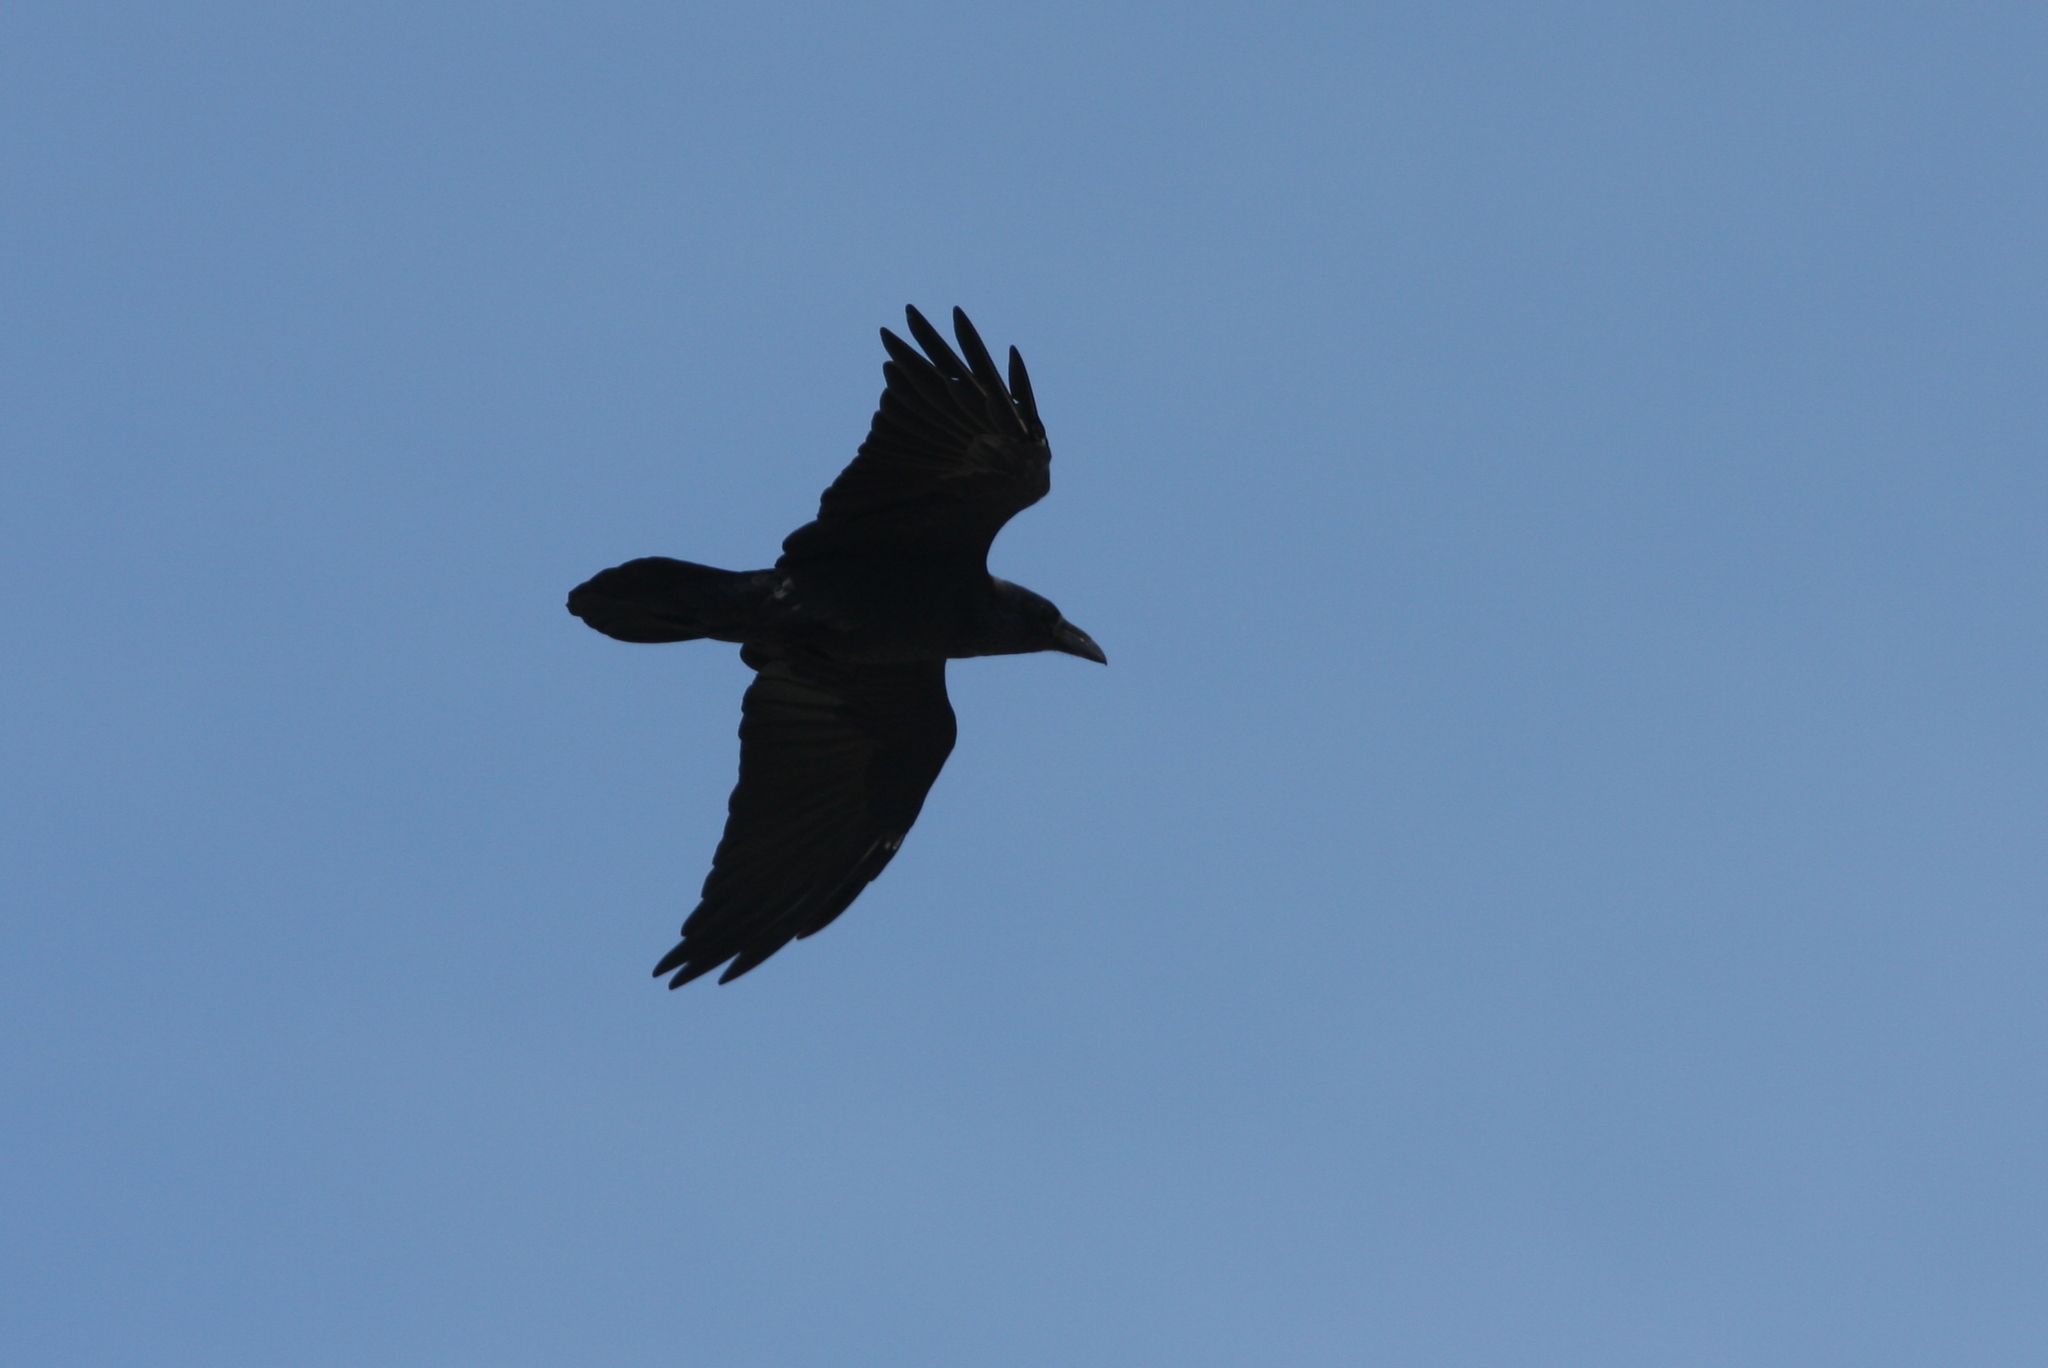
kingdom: Animalia
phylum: Chordata
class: Aves
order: Passeriformes
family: Corvidae
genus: Corvus
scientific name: Corvus corax
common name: Common raven
